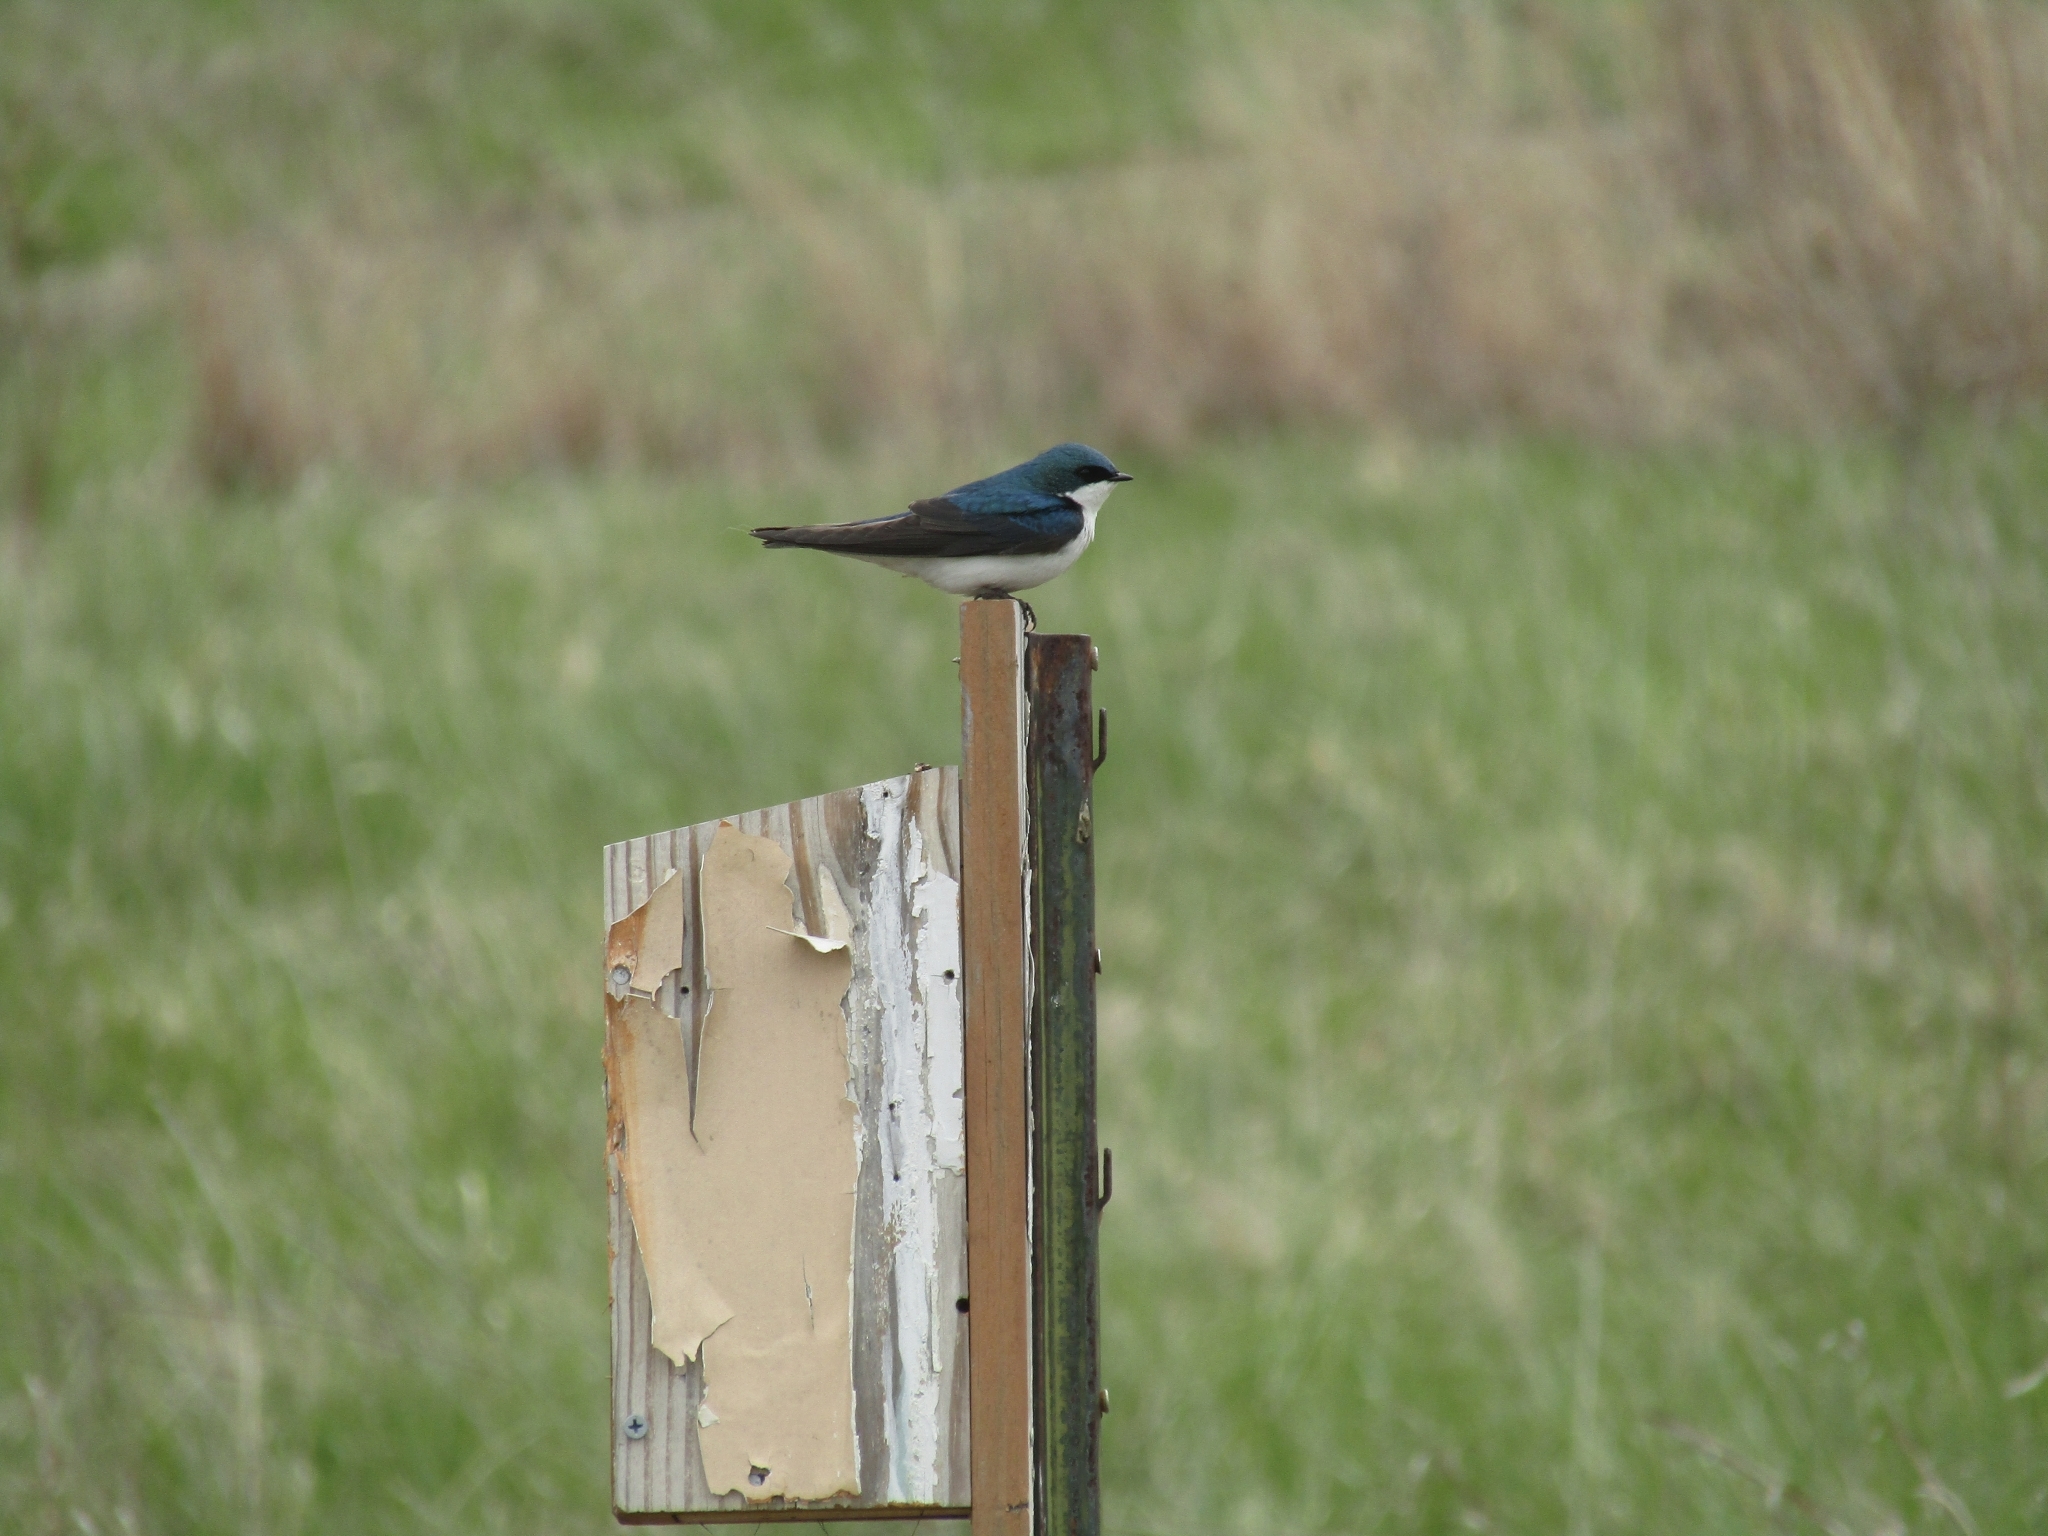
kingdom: Animalia
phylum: Chordata
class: Aves
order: Passeriformes
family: Hirundinidae
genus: Tachycineta
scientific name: Tachycineta bicolor
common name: Tree swallow
